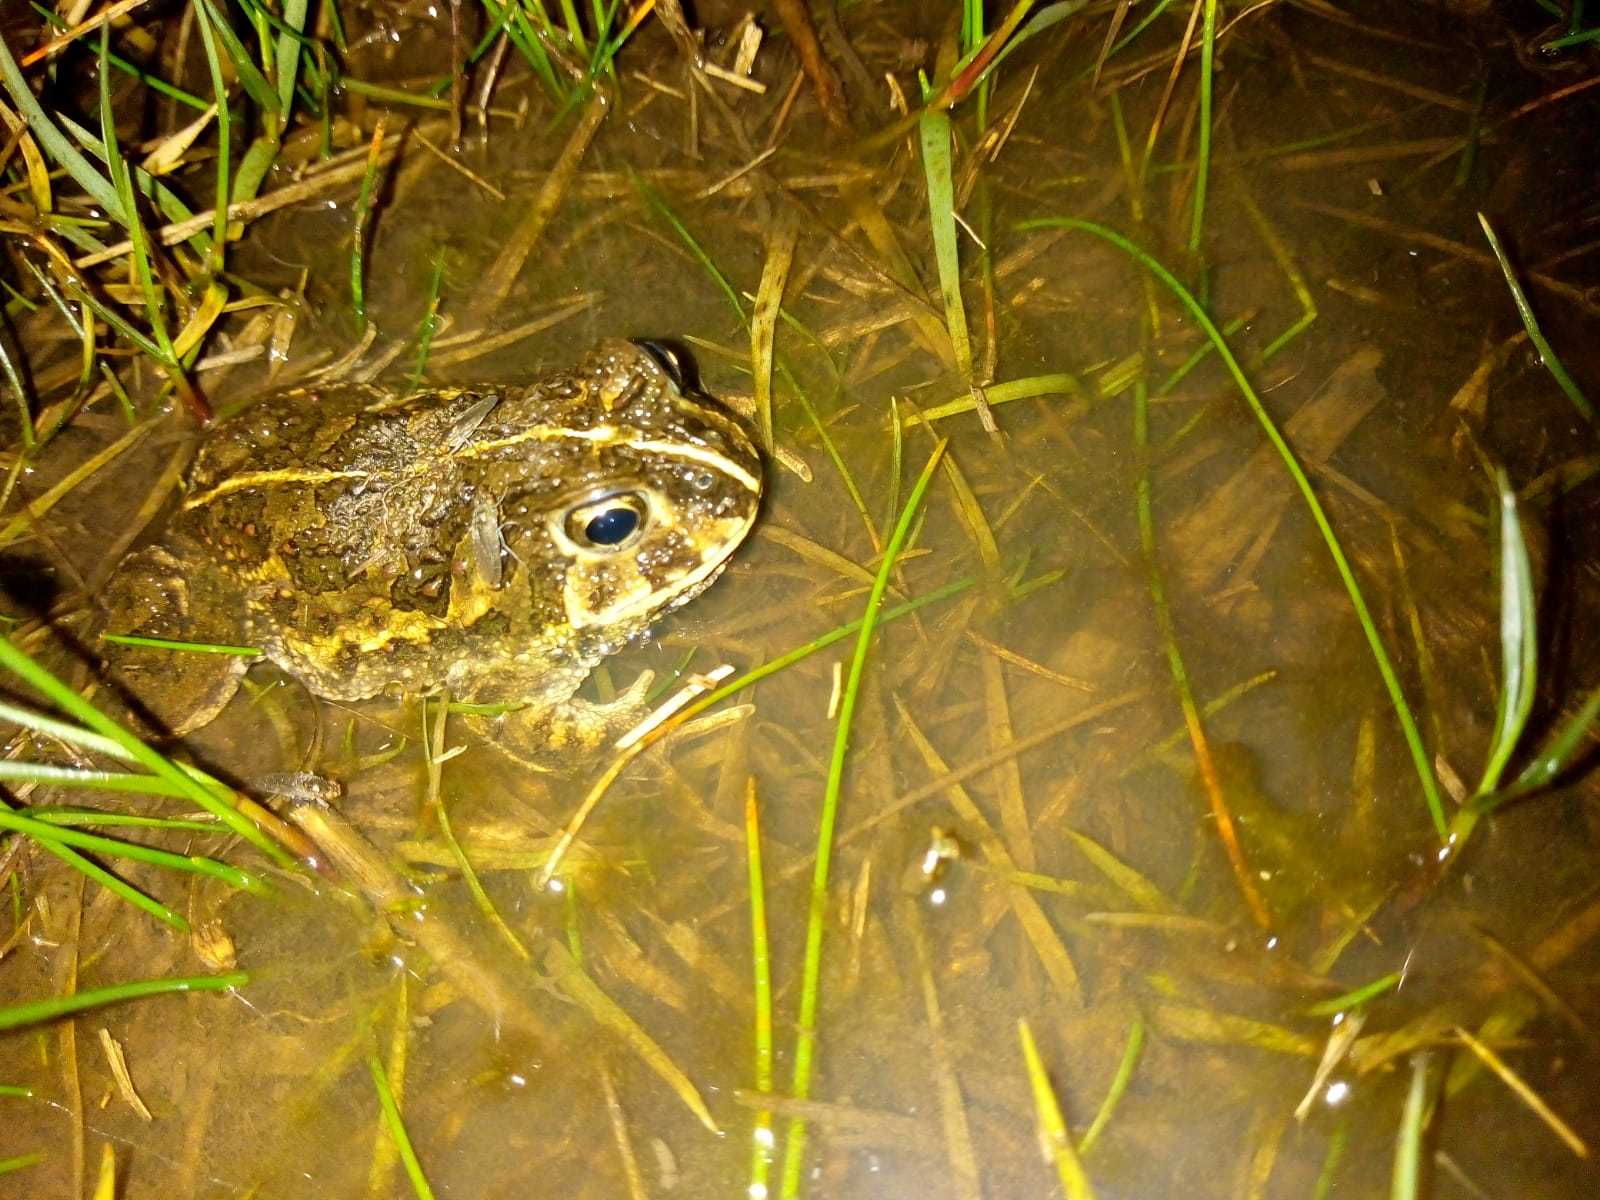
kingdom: Animalia
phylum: Chordata
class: Amphibia
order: Anura
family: Odontophrynidae
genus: Odontophrynus
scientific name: Odontophrynus
